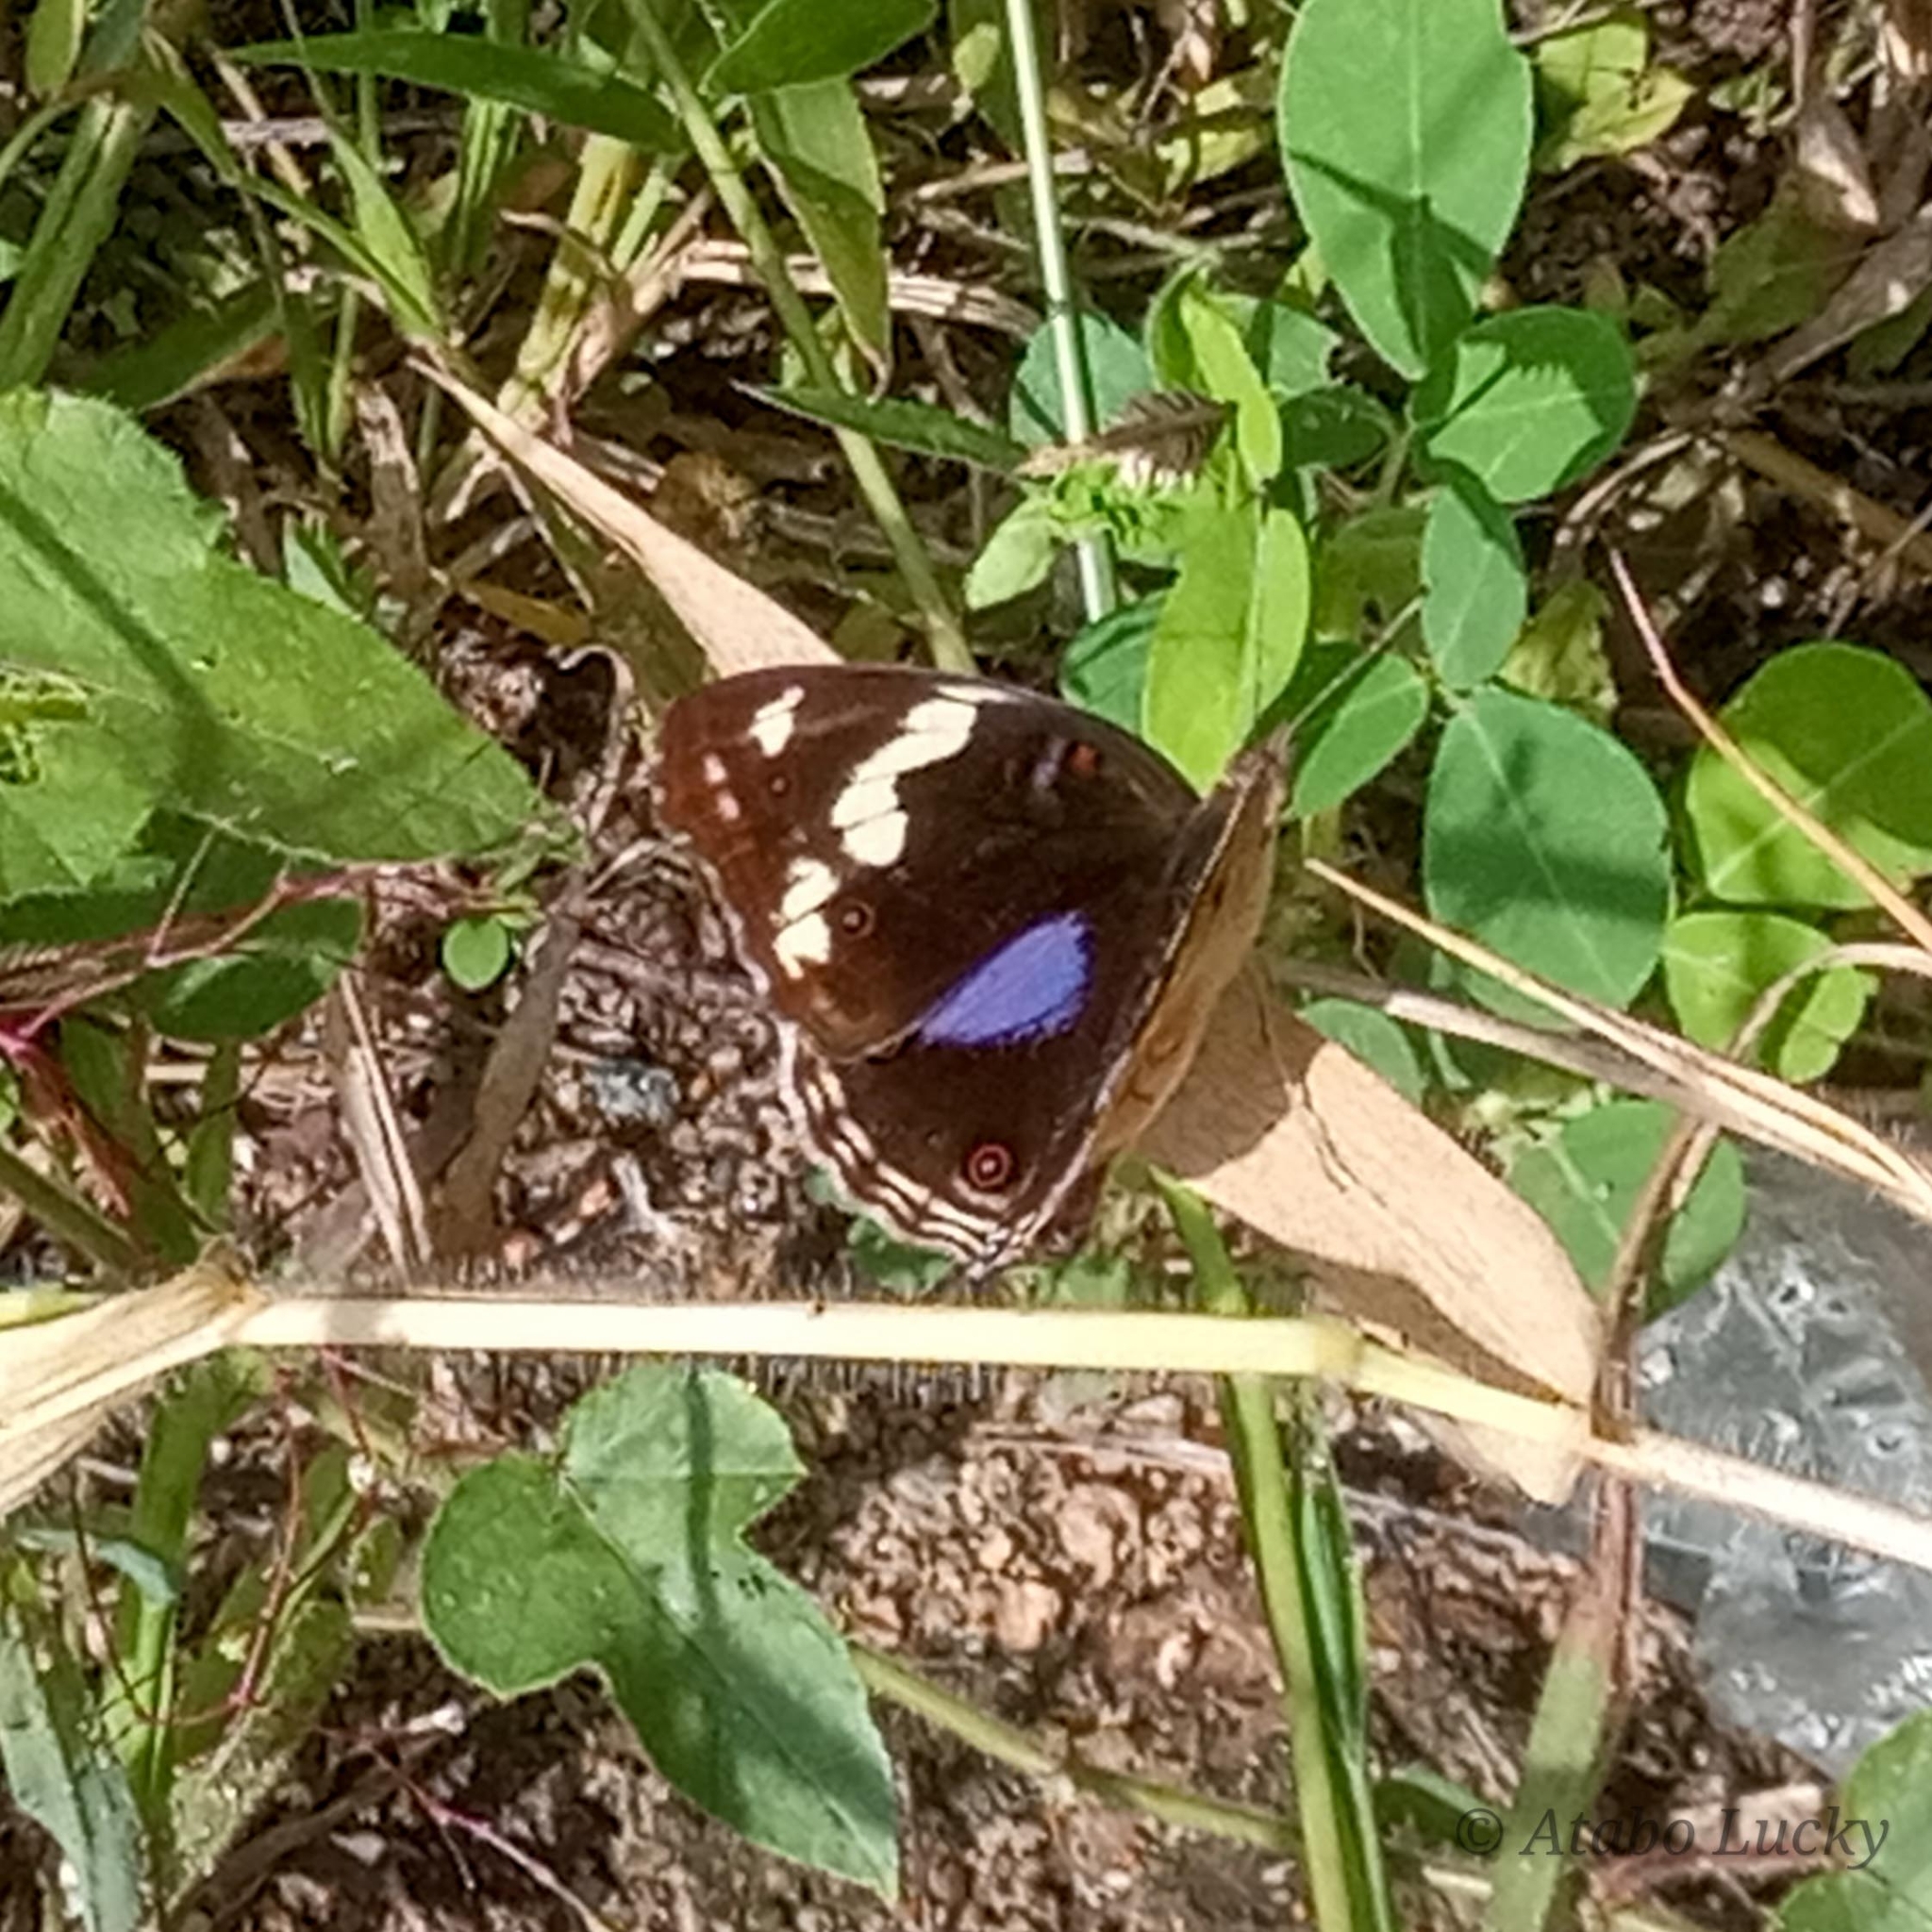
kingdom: Animalia
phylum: Arthropoda
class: Insecta
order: Lepidoptera
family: Nymphalidae
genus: Junonia
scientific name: Junonia oenone
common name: Dark blue pansy
